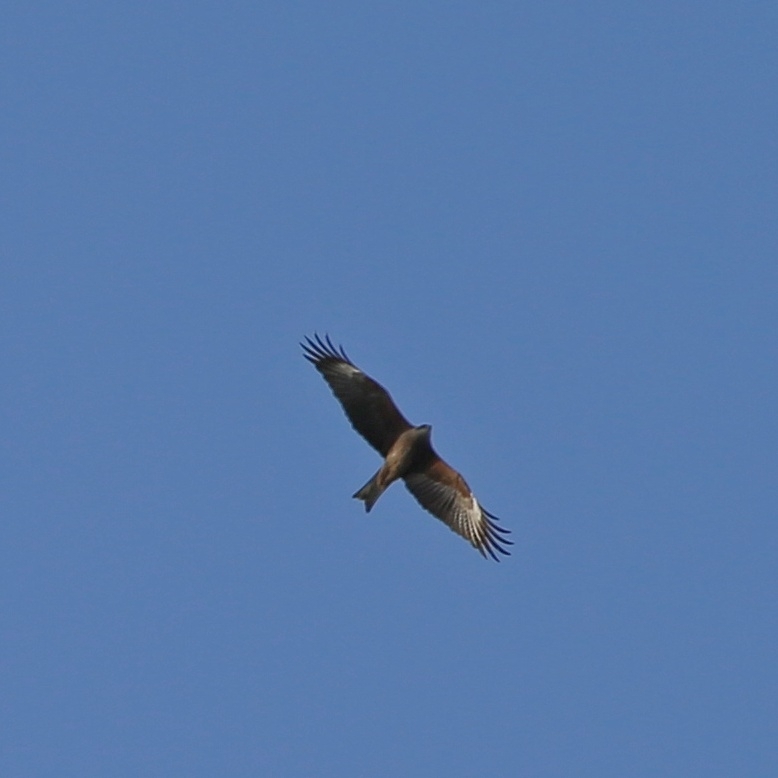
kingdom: Animalia
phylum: Chordata
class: Aves
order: Accipitriformes
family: Accipitridae
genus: Milvus
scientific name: Milvus migrans
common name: Black kite
